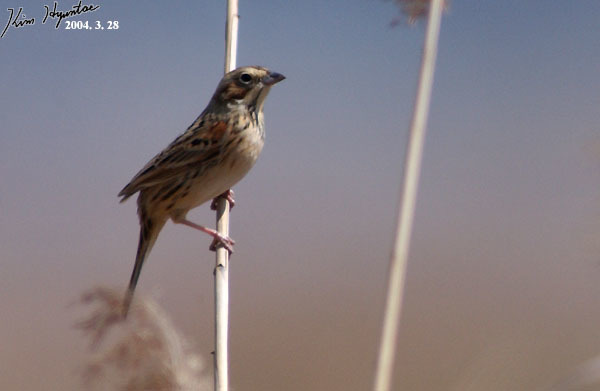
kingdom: Animalia
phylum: Chordata
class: Aves
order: Passeriformes
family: Emberizidae
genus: Emberiza
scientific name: Emberiza fucata
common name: Chestnut-eared bunting
